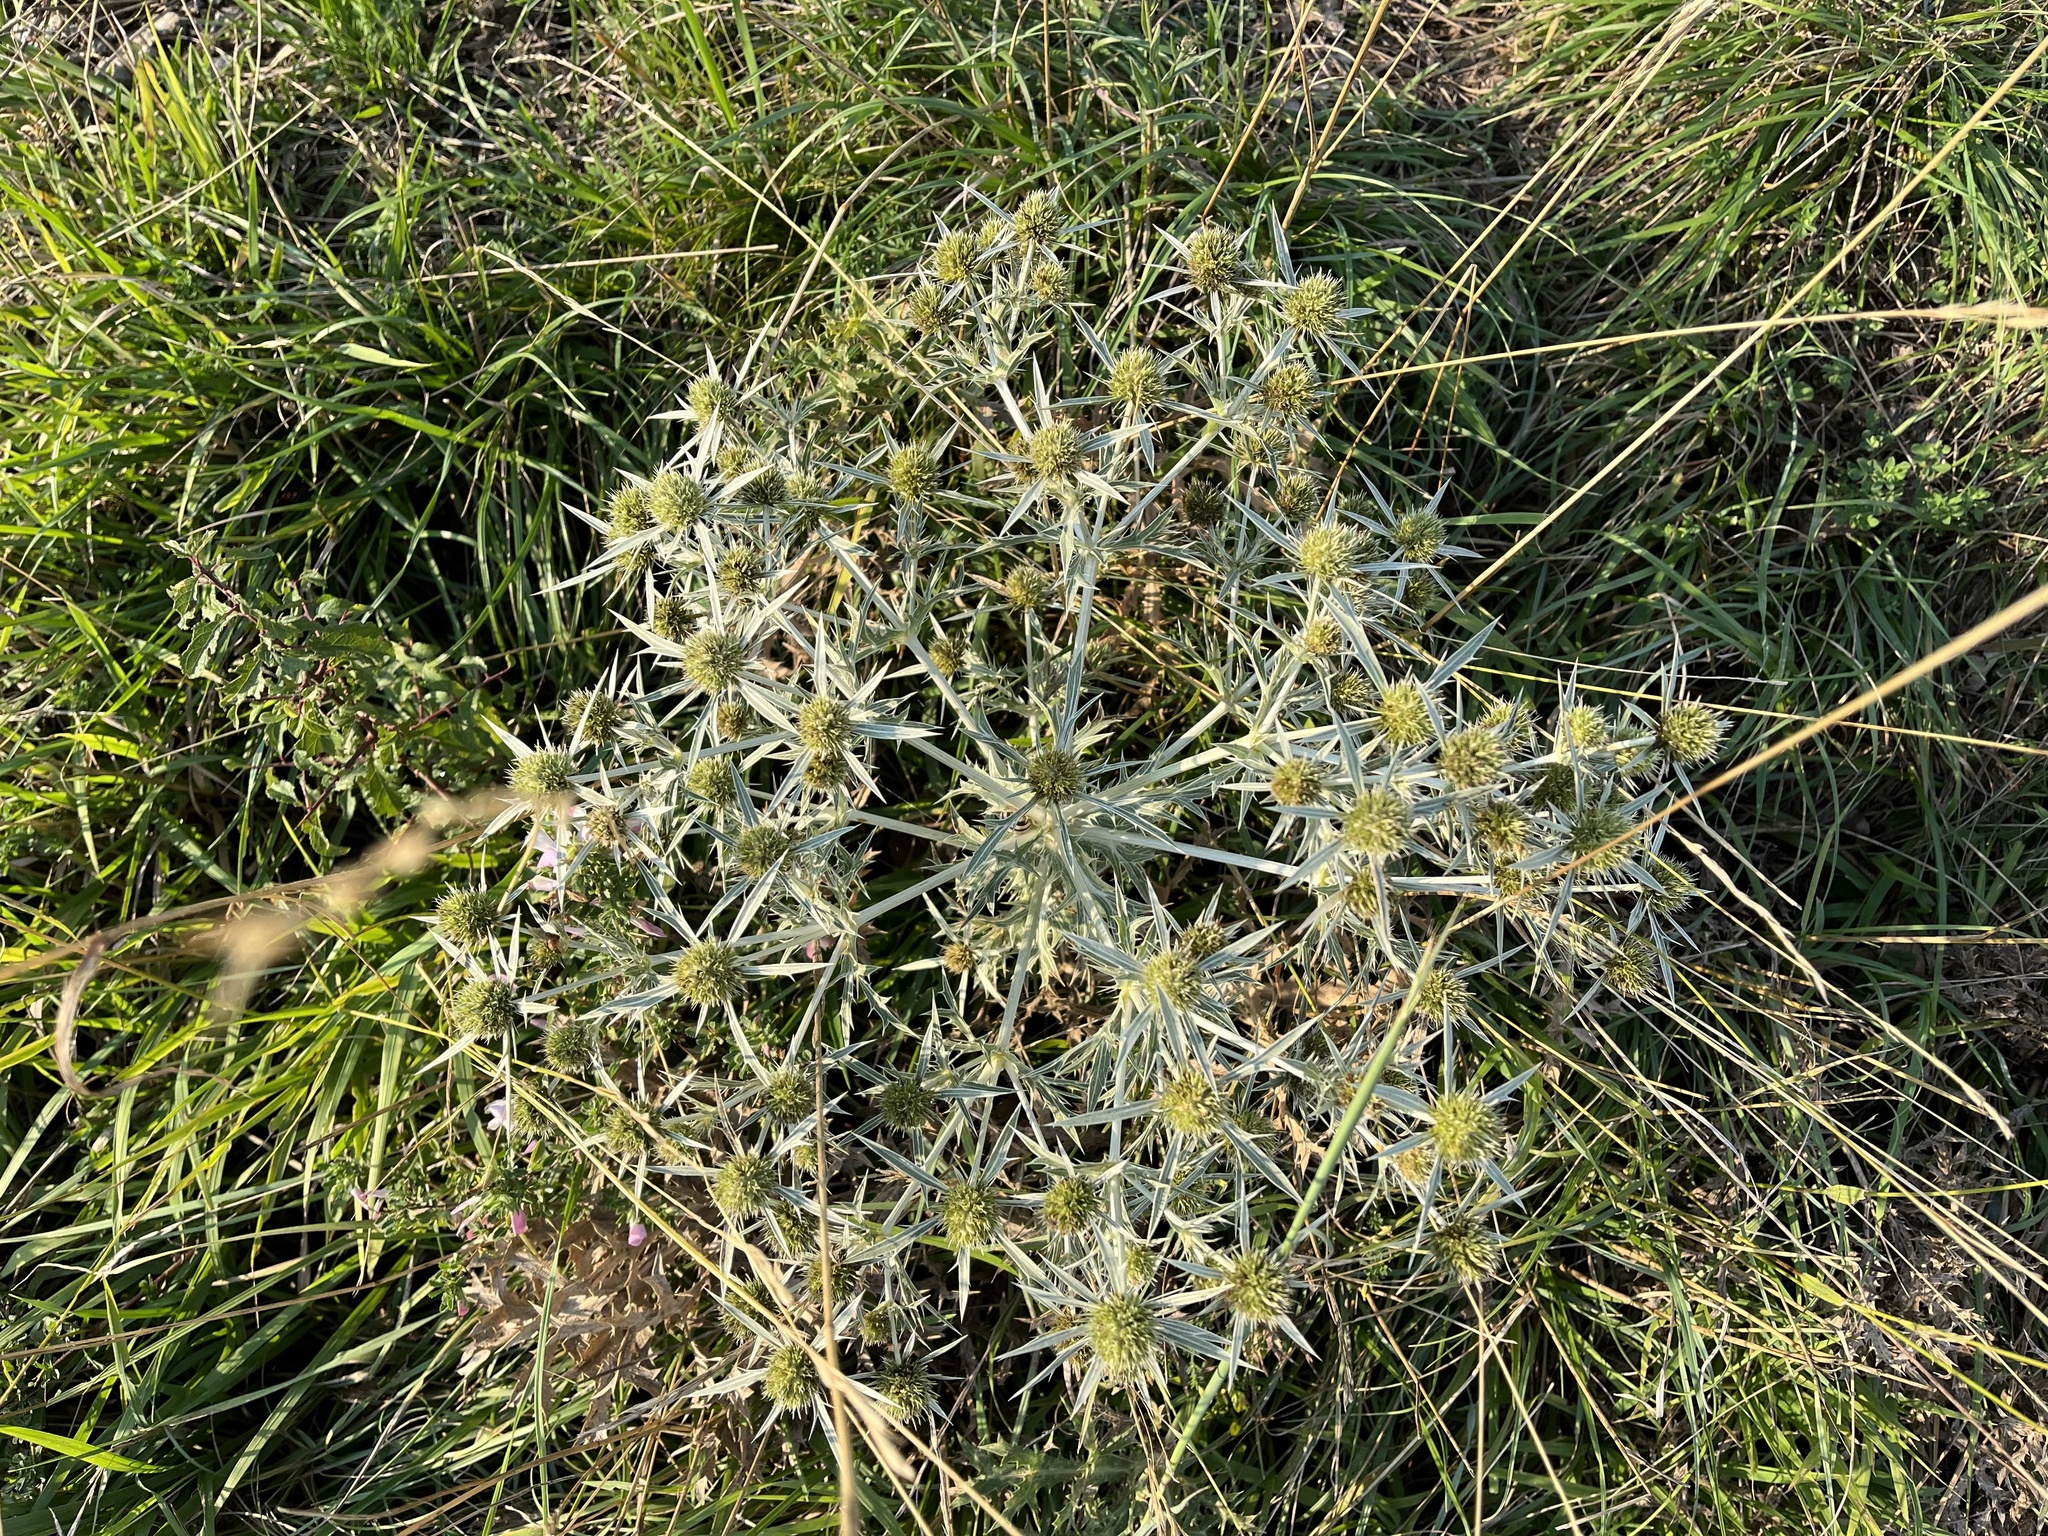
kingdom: Plantae
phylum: Tracheophyta
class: Magnoliopsida
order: Apiales
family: Apiaceae
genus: Eryngium
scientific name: Eryngium campestre
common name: Field eryngo
